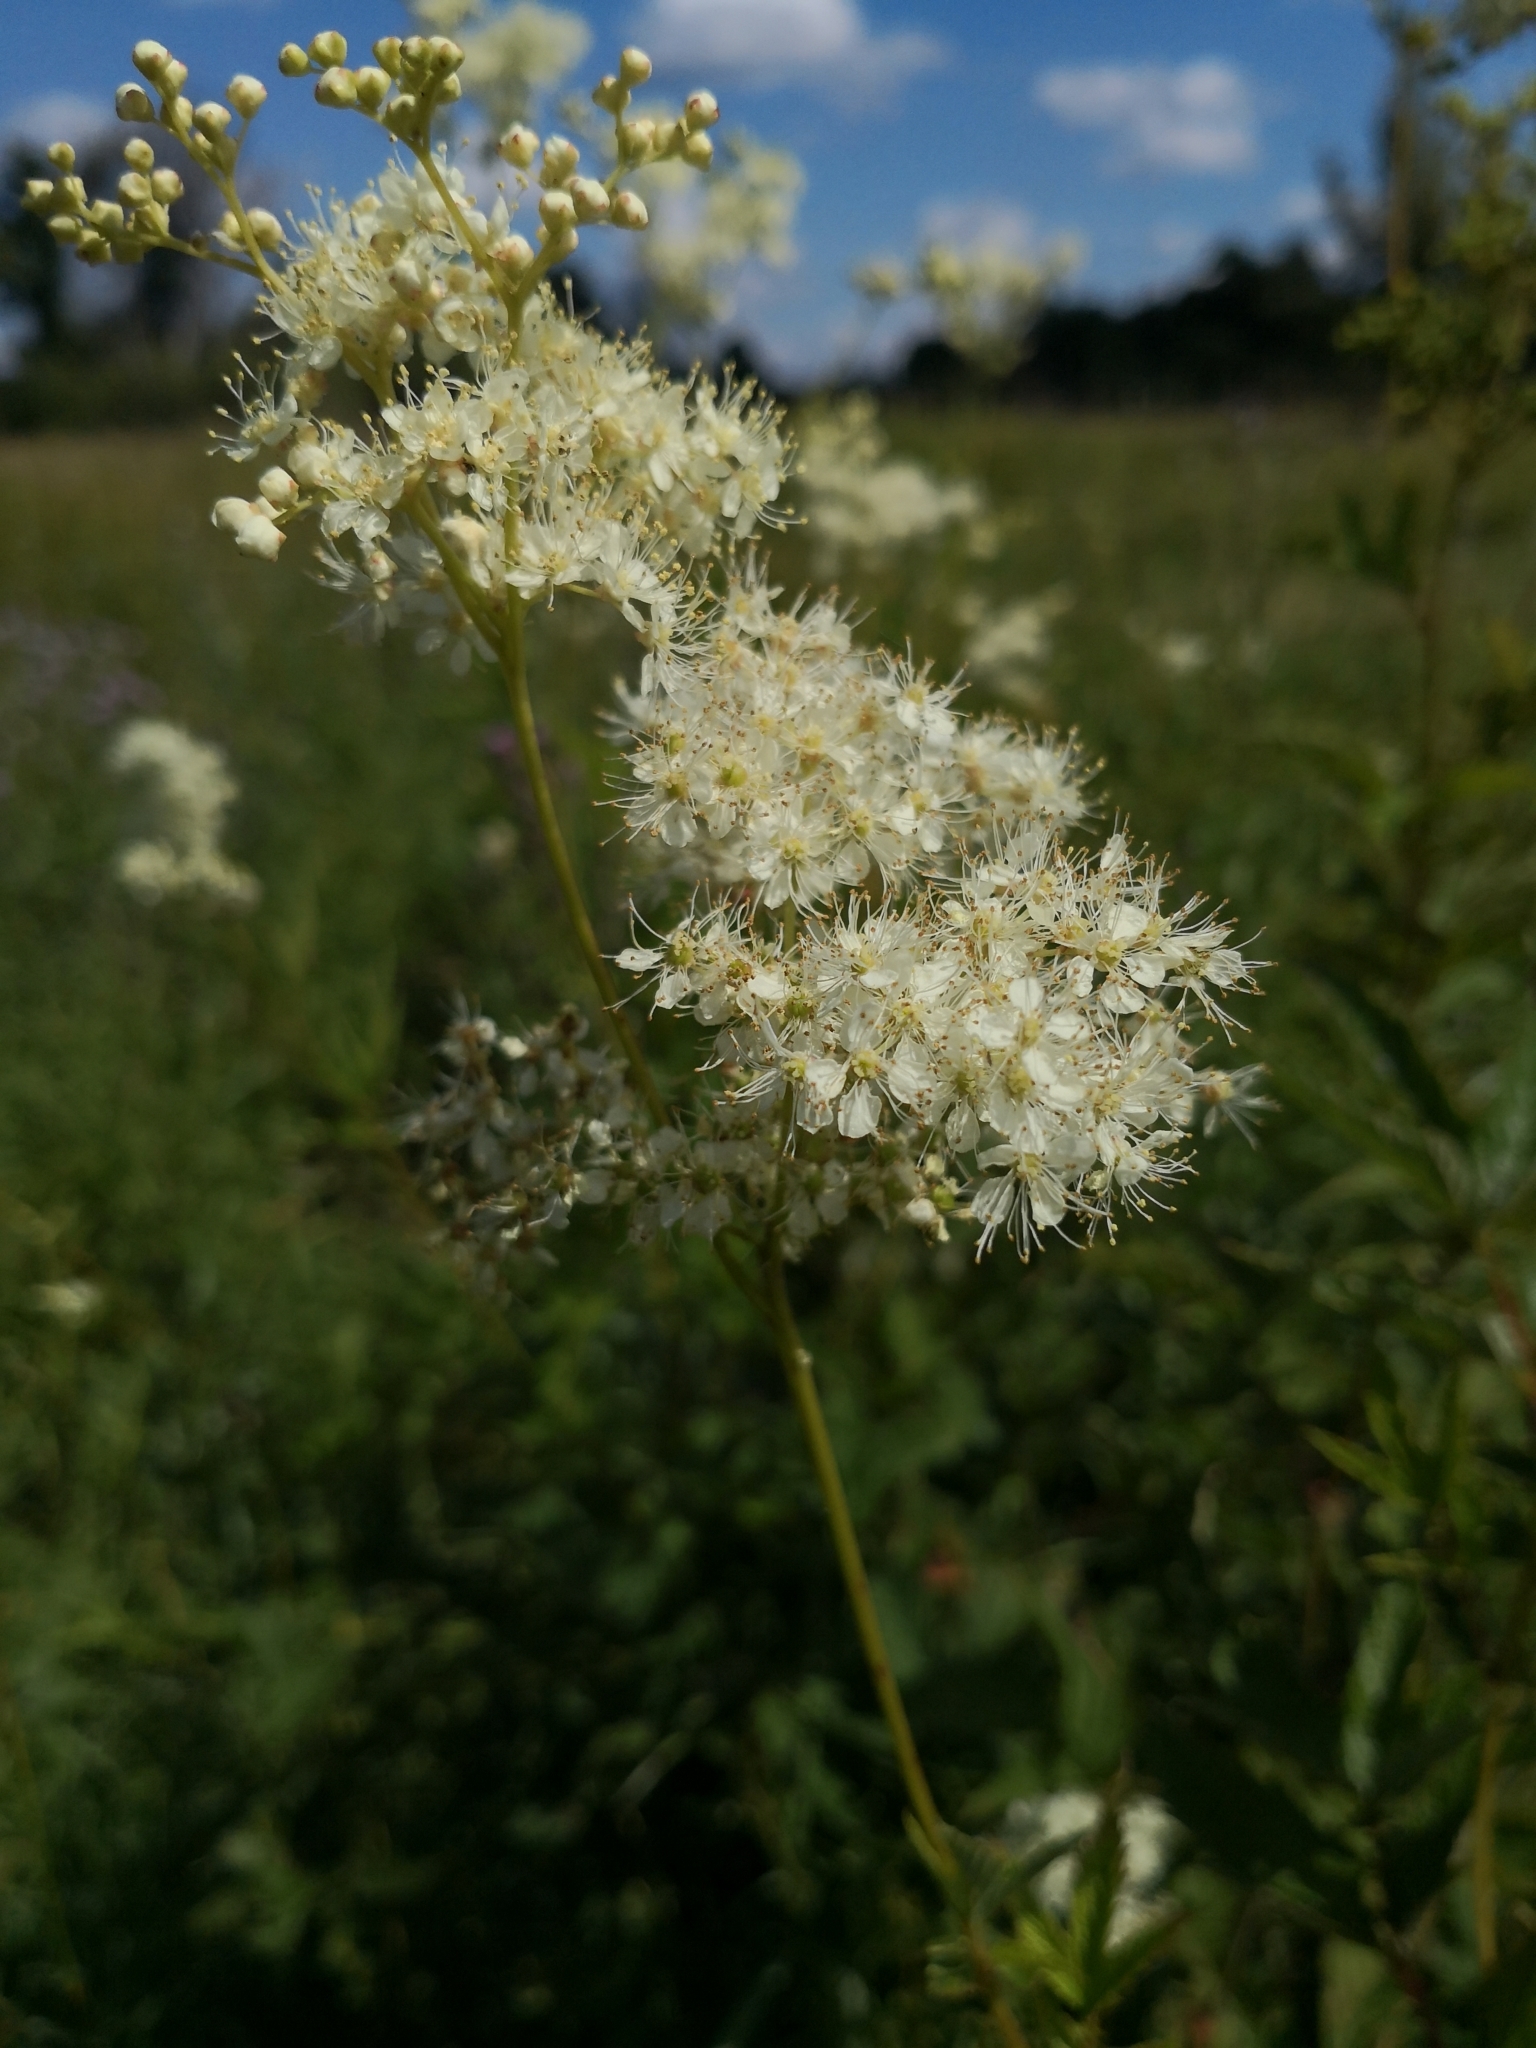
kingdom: Plantae
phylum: Tracheophyta
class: Magnoliopsida
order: Rosales
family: Rosaceae
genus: Filipendula
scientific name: Filipendula ulmaria
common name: Meadowsweet
